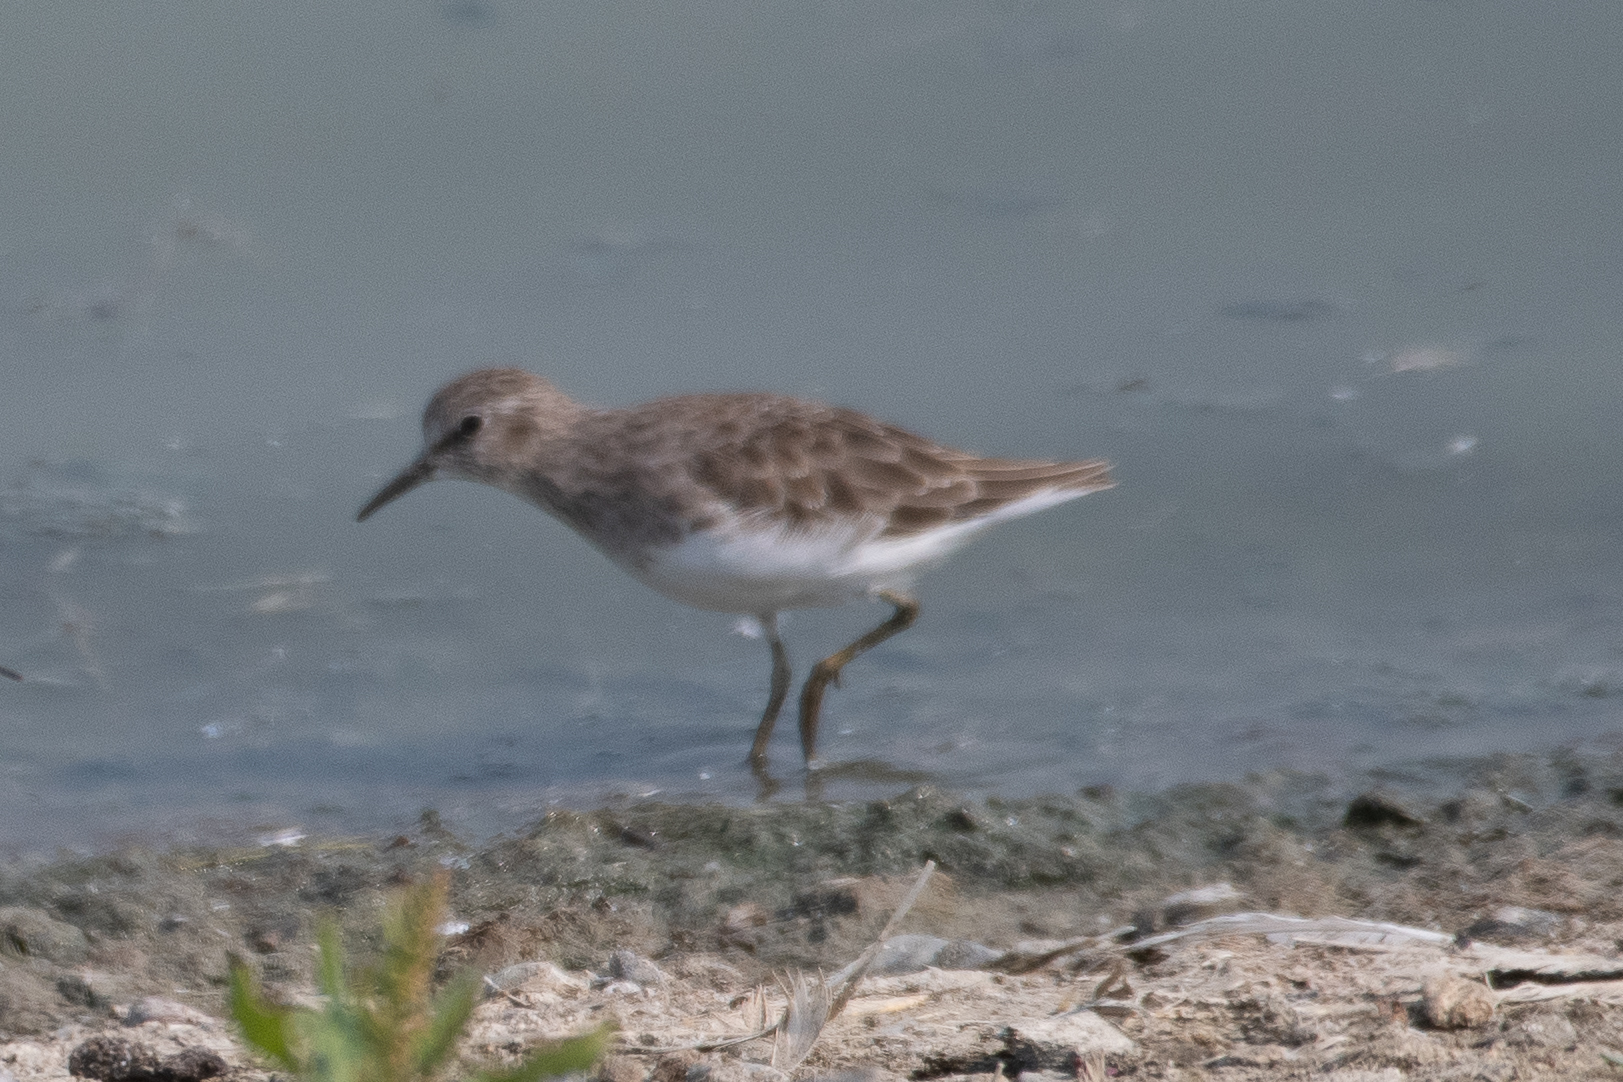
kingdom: Animalia
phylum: Chordata
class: Aves
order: Charadriiformes
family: Scolopacidae
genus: Calidris
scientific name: Calidris minutilla
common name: Least sandpiper
